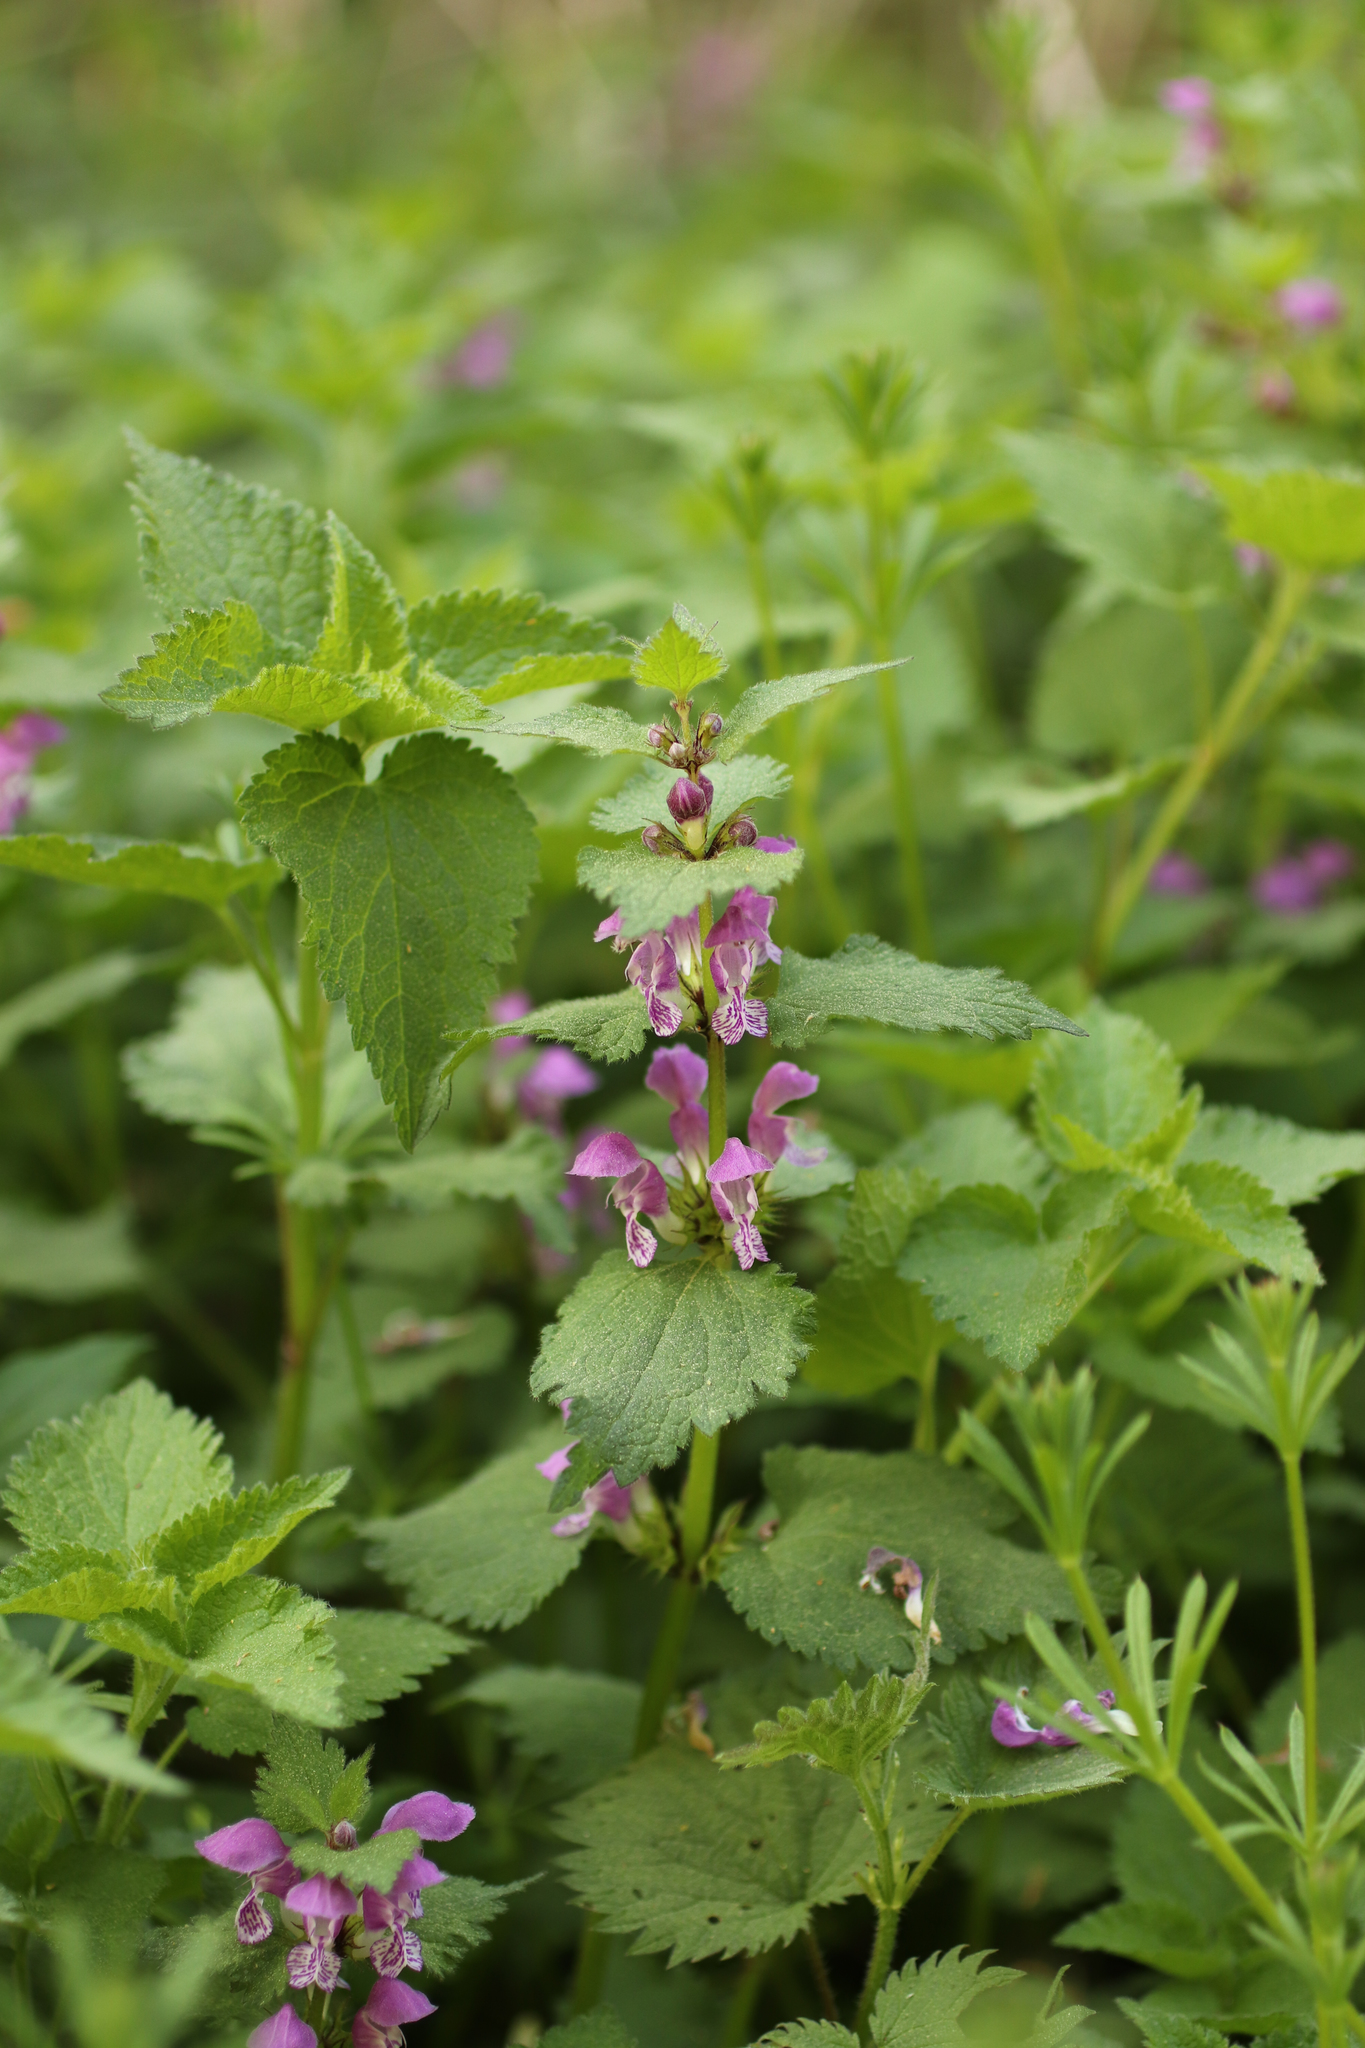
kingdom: Plantae
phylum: Tracheophyta
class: Magnoliopsida
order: Lamiales
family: Lamiaceae
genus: Lamium
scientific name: Lamium maculatum
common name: Spotted dead-nettle
